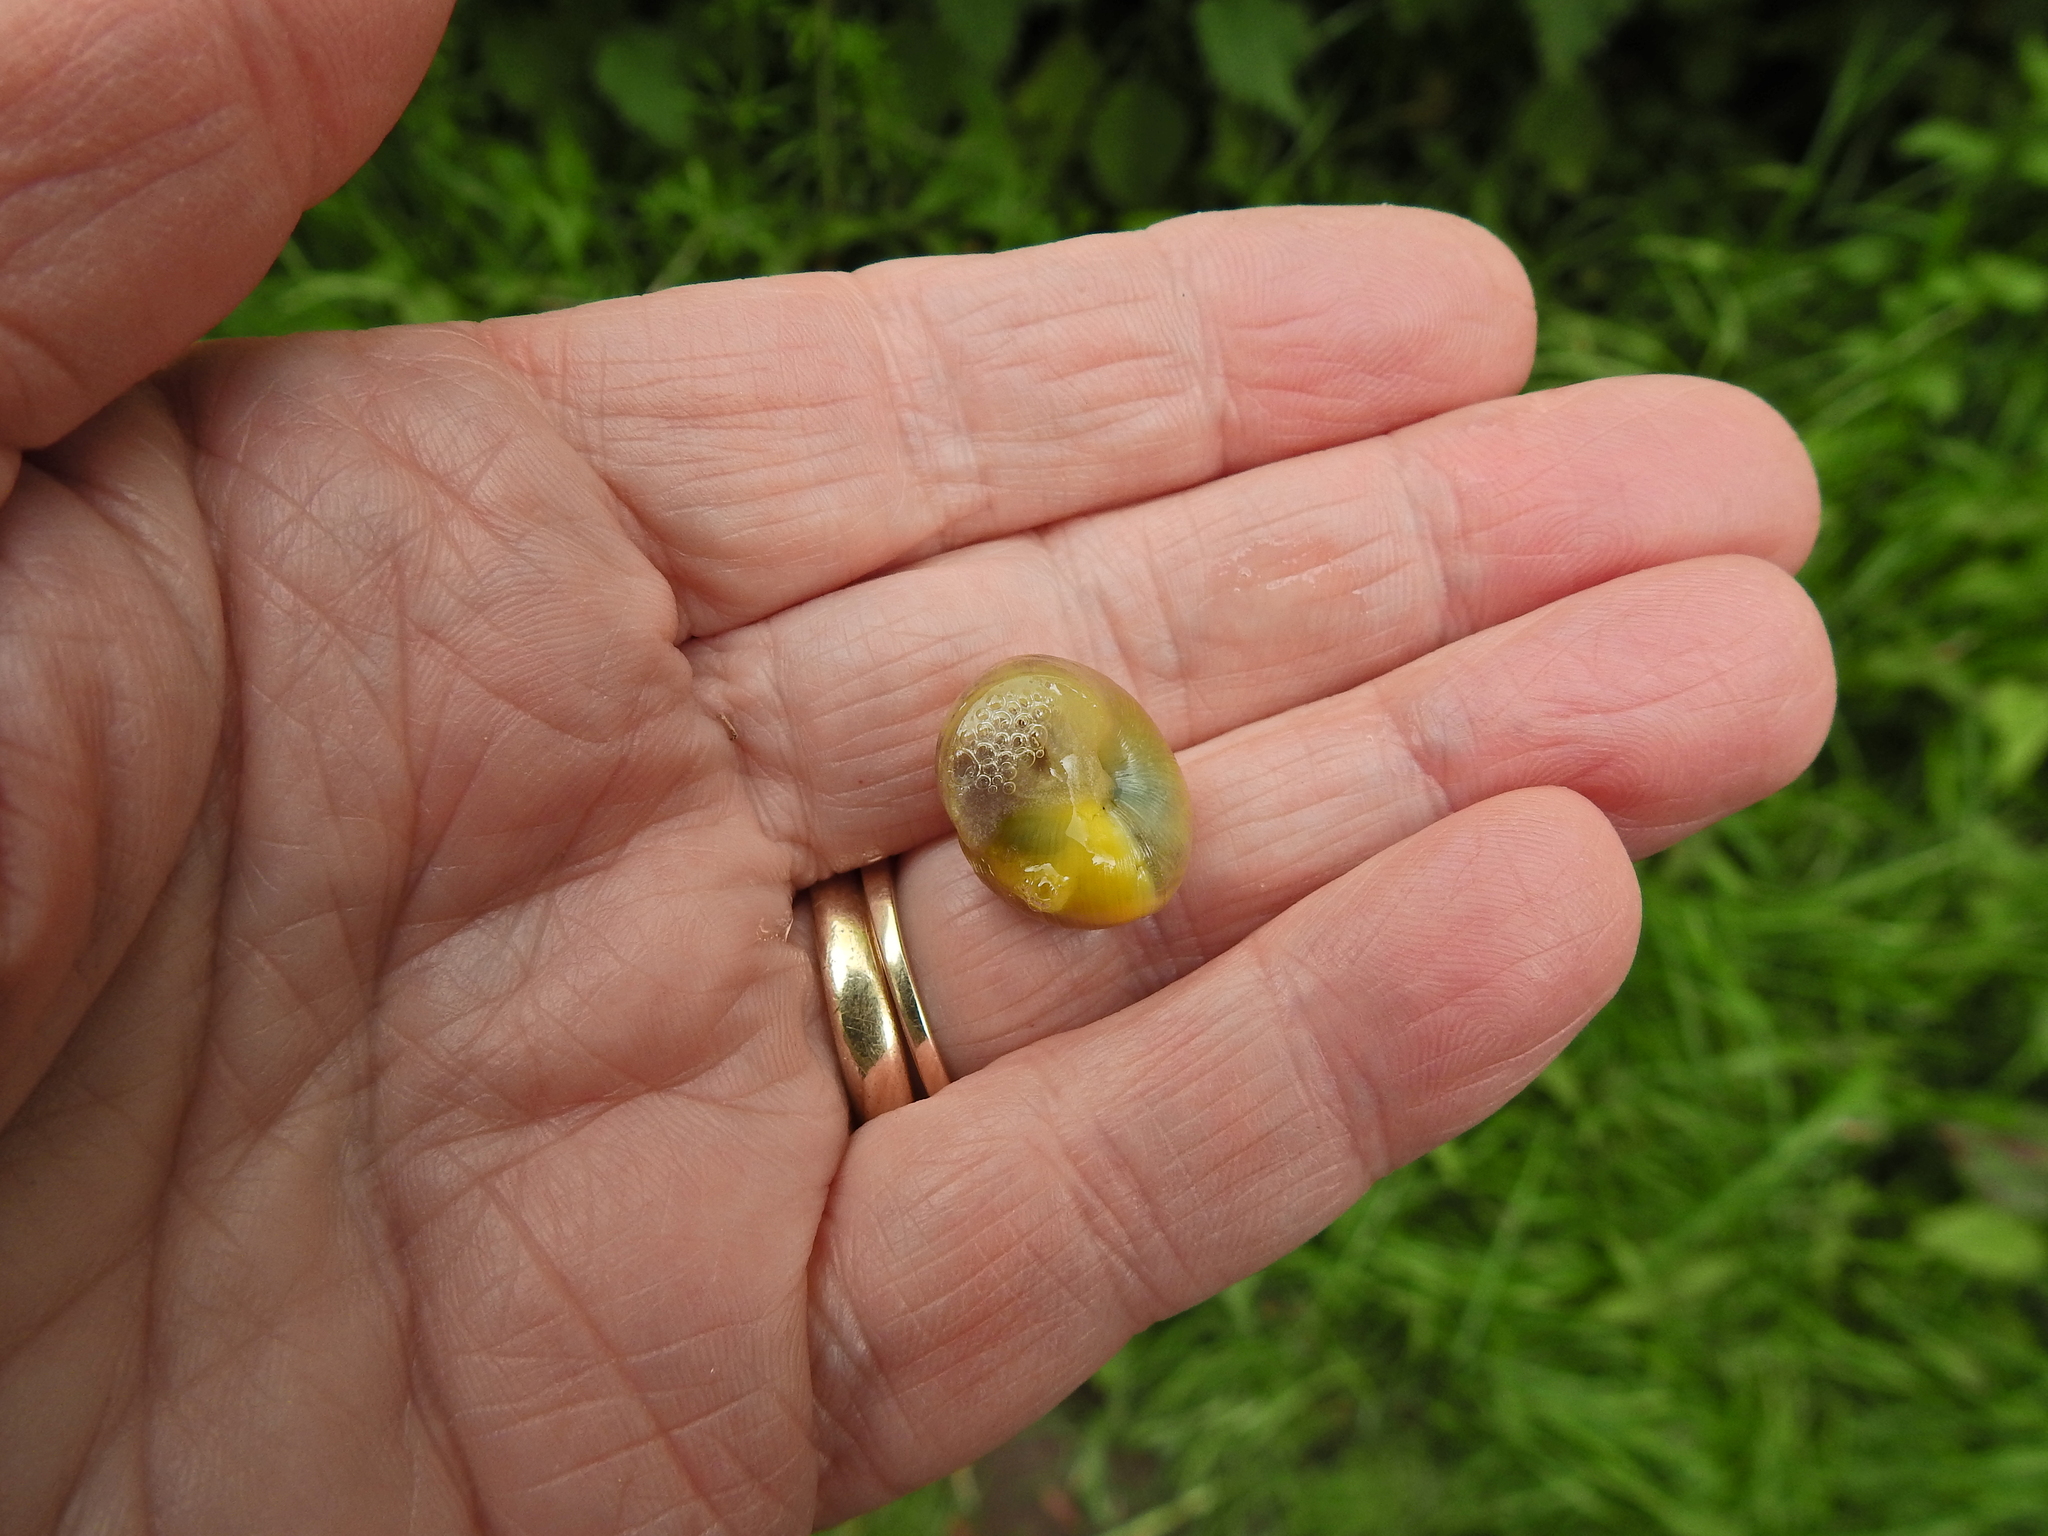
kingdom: Animalia
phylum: Mollusca
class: Gastropoda
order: Stylommatophora
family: Helicidae
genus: Cepaea
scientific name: Cepaea
